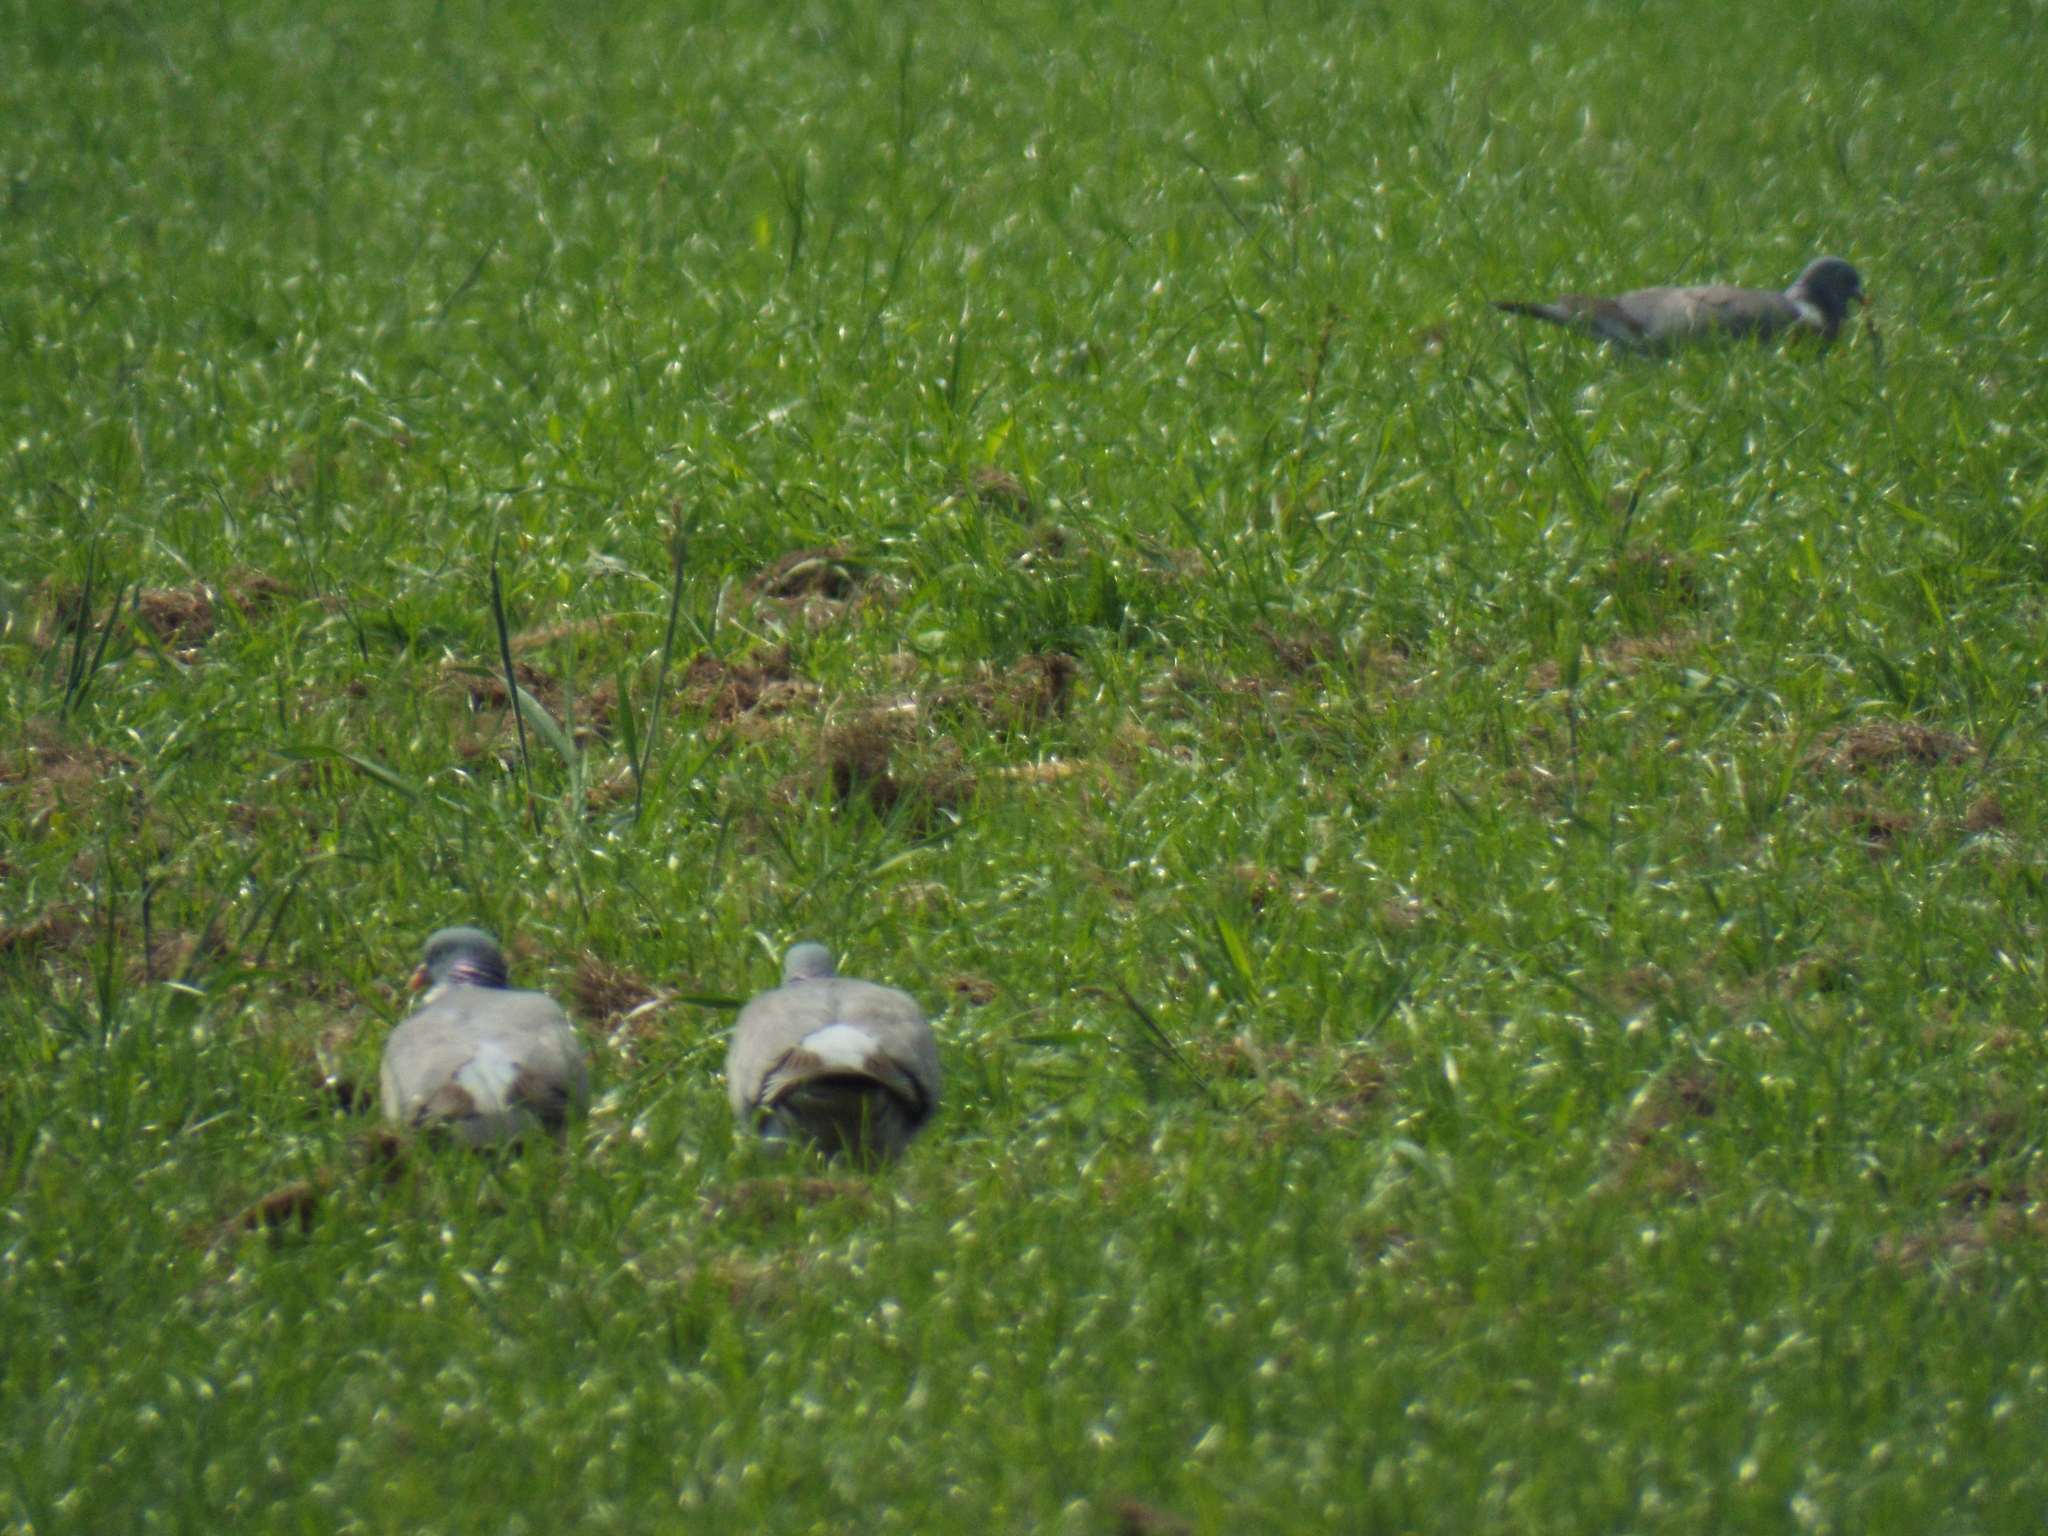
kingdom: Animalia
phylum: Chordata
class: Aves
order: Columbiformes
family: Columbidae
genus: Columba
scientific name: Columba palumbus
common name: Common wood pigeon
